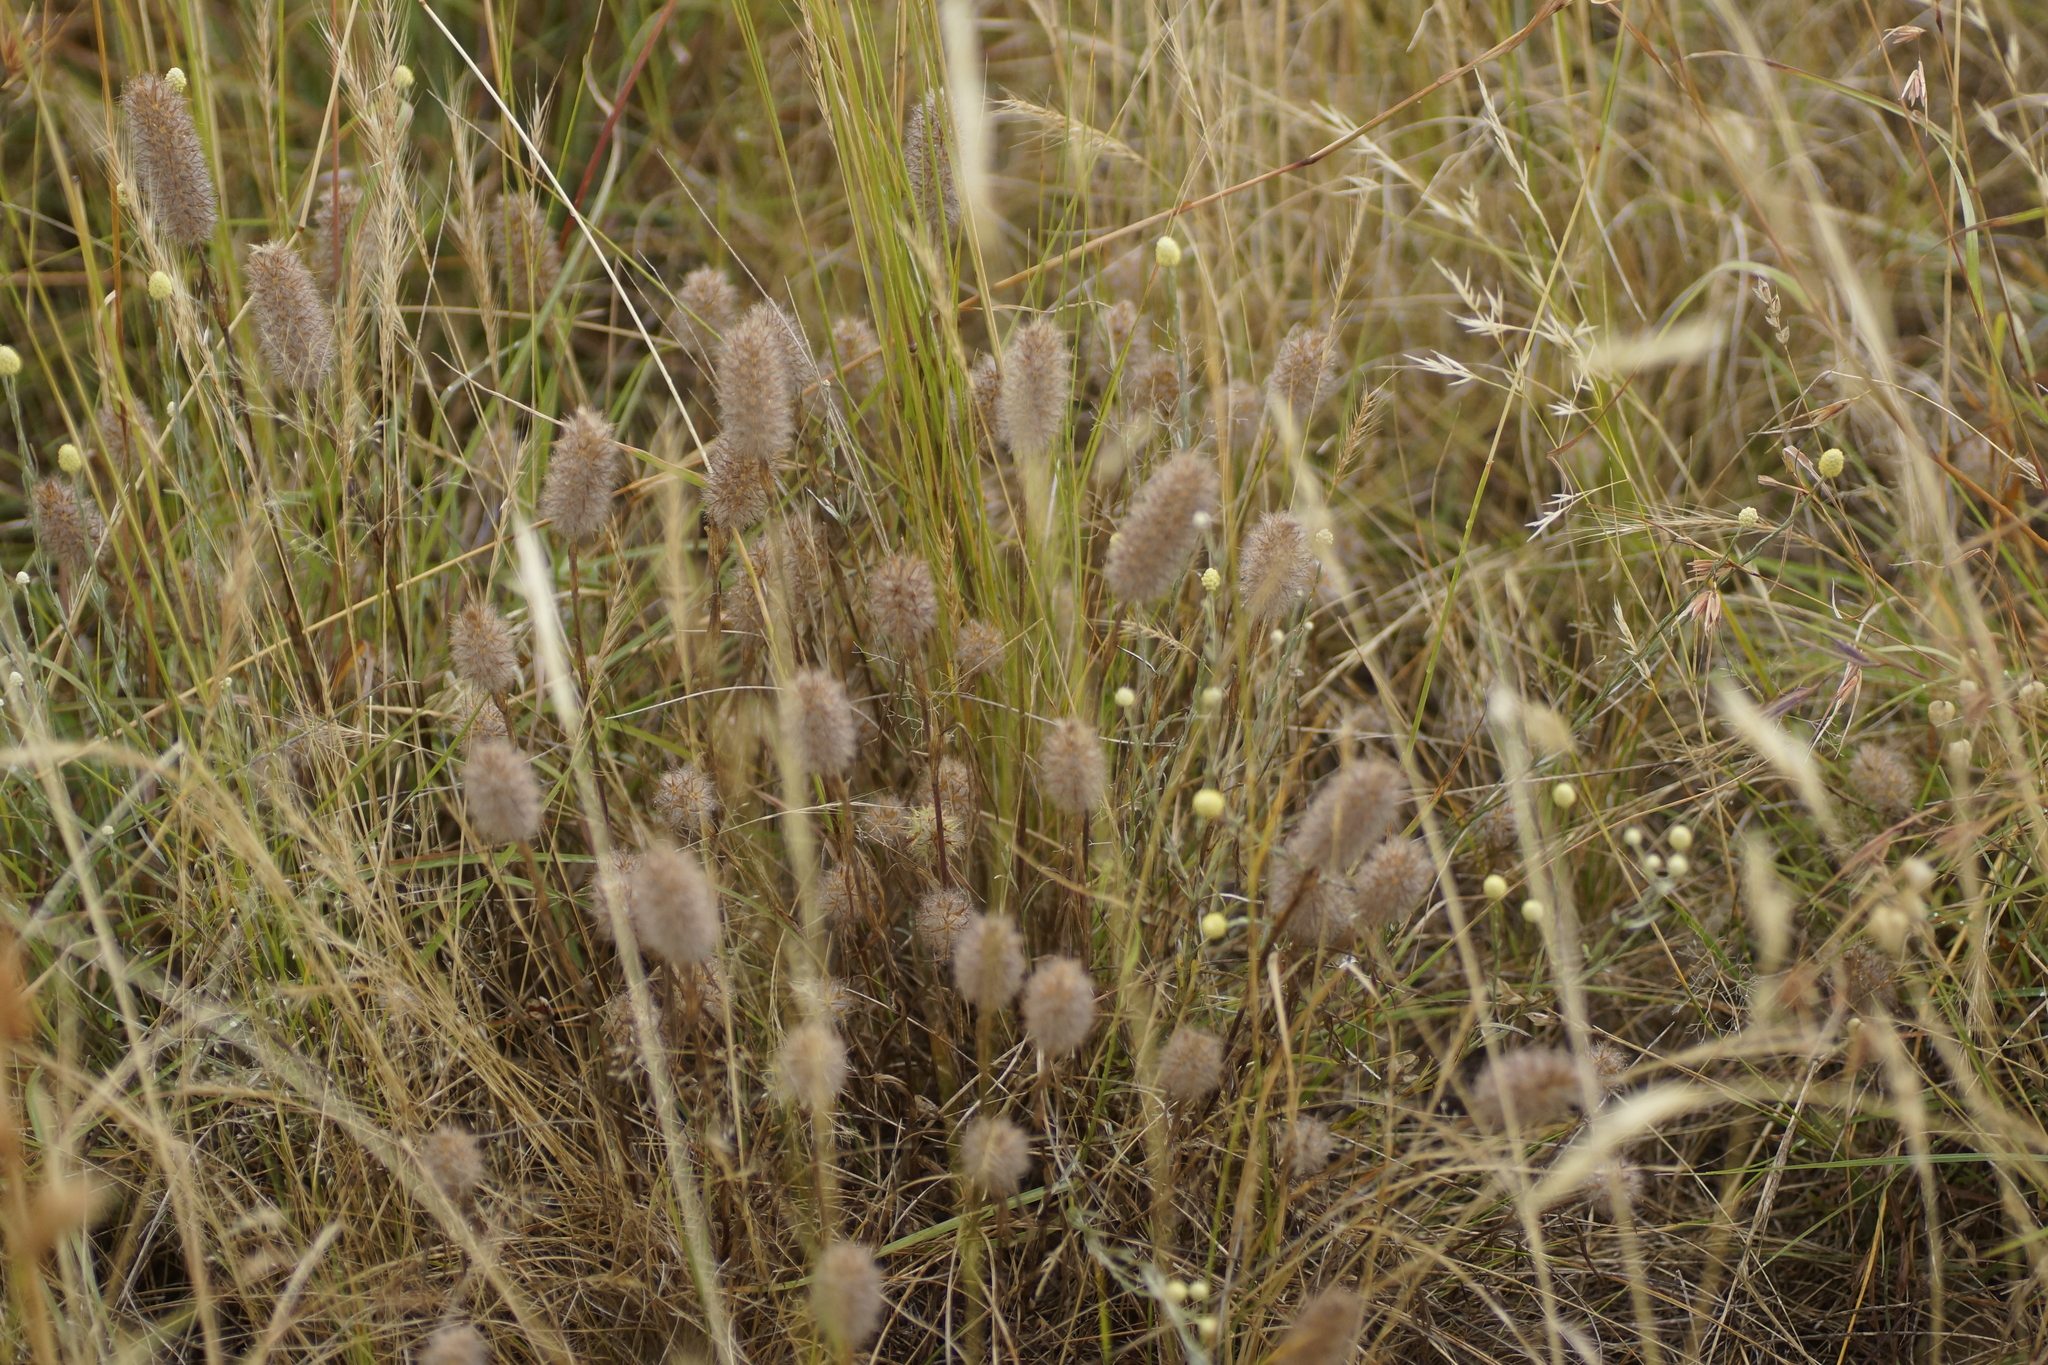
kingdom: Plantae
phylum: Tracheophyta
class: Liliopsida
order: Poales
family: Poaceae
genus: Lagurus
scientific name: Lagurus ovatus
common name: Hare's-tail
